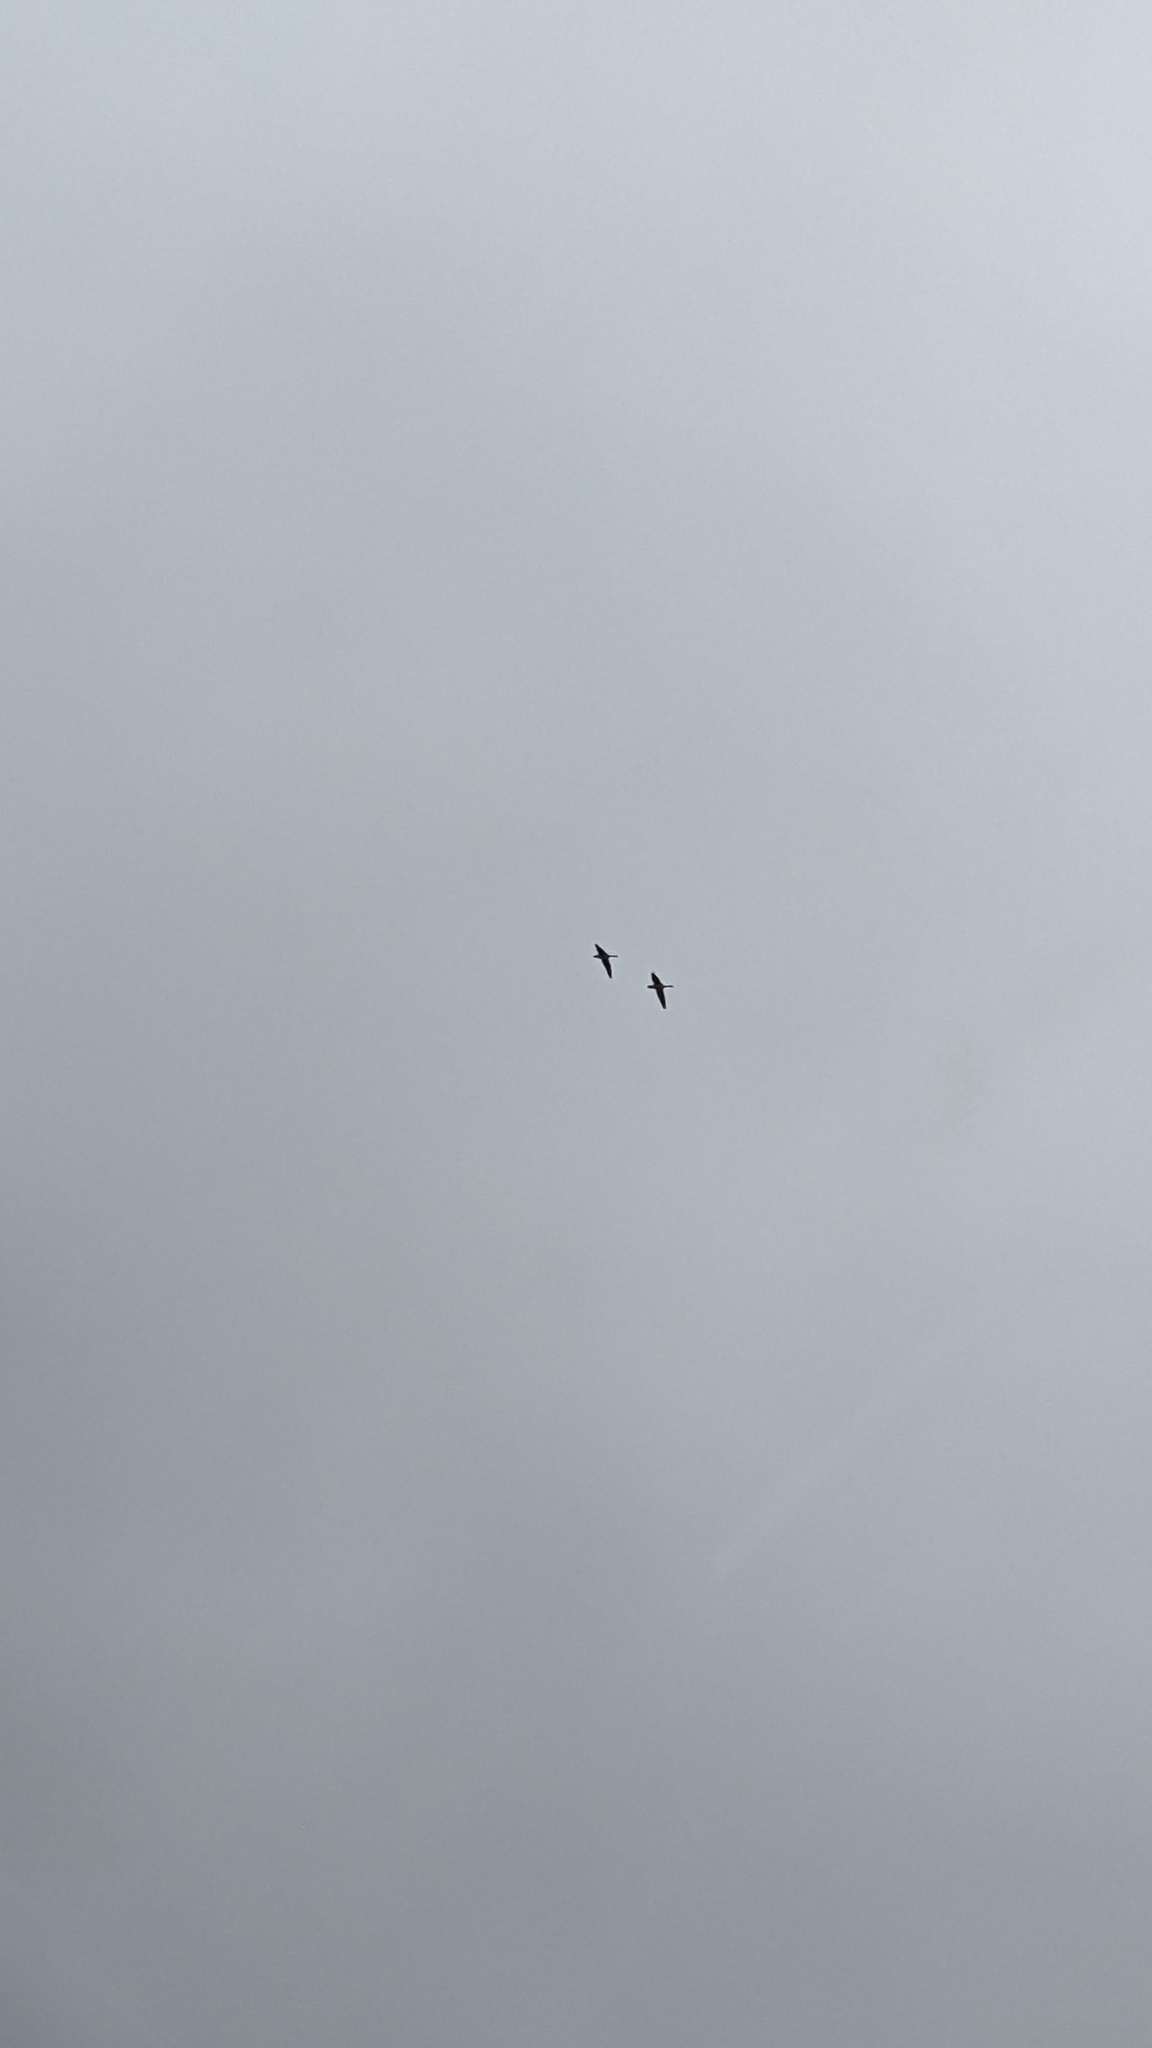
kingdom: Animalia
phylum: Chordata
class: Aves
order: Anseriformes
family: Anatidae
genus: Branta
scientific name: Branta canadensis
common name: Canada goose
